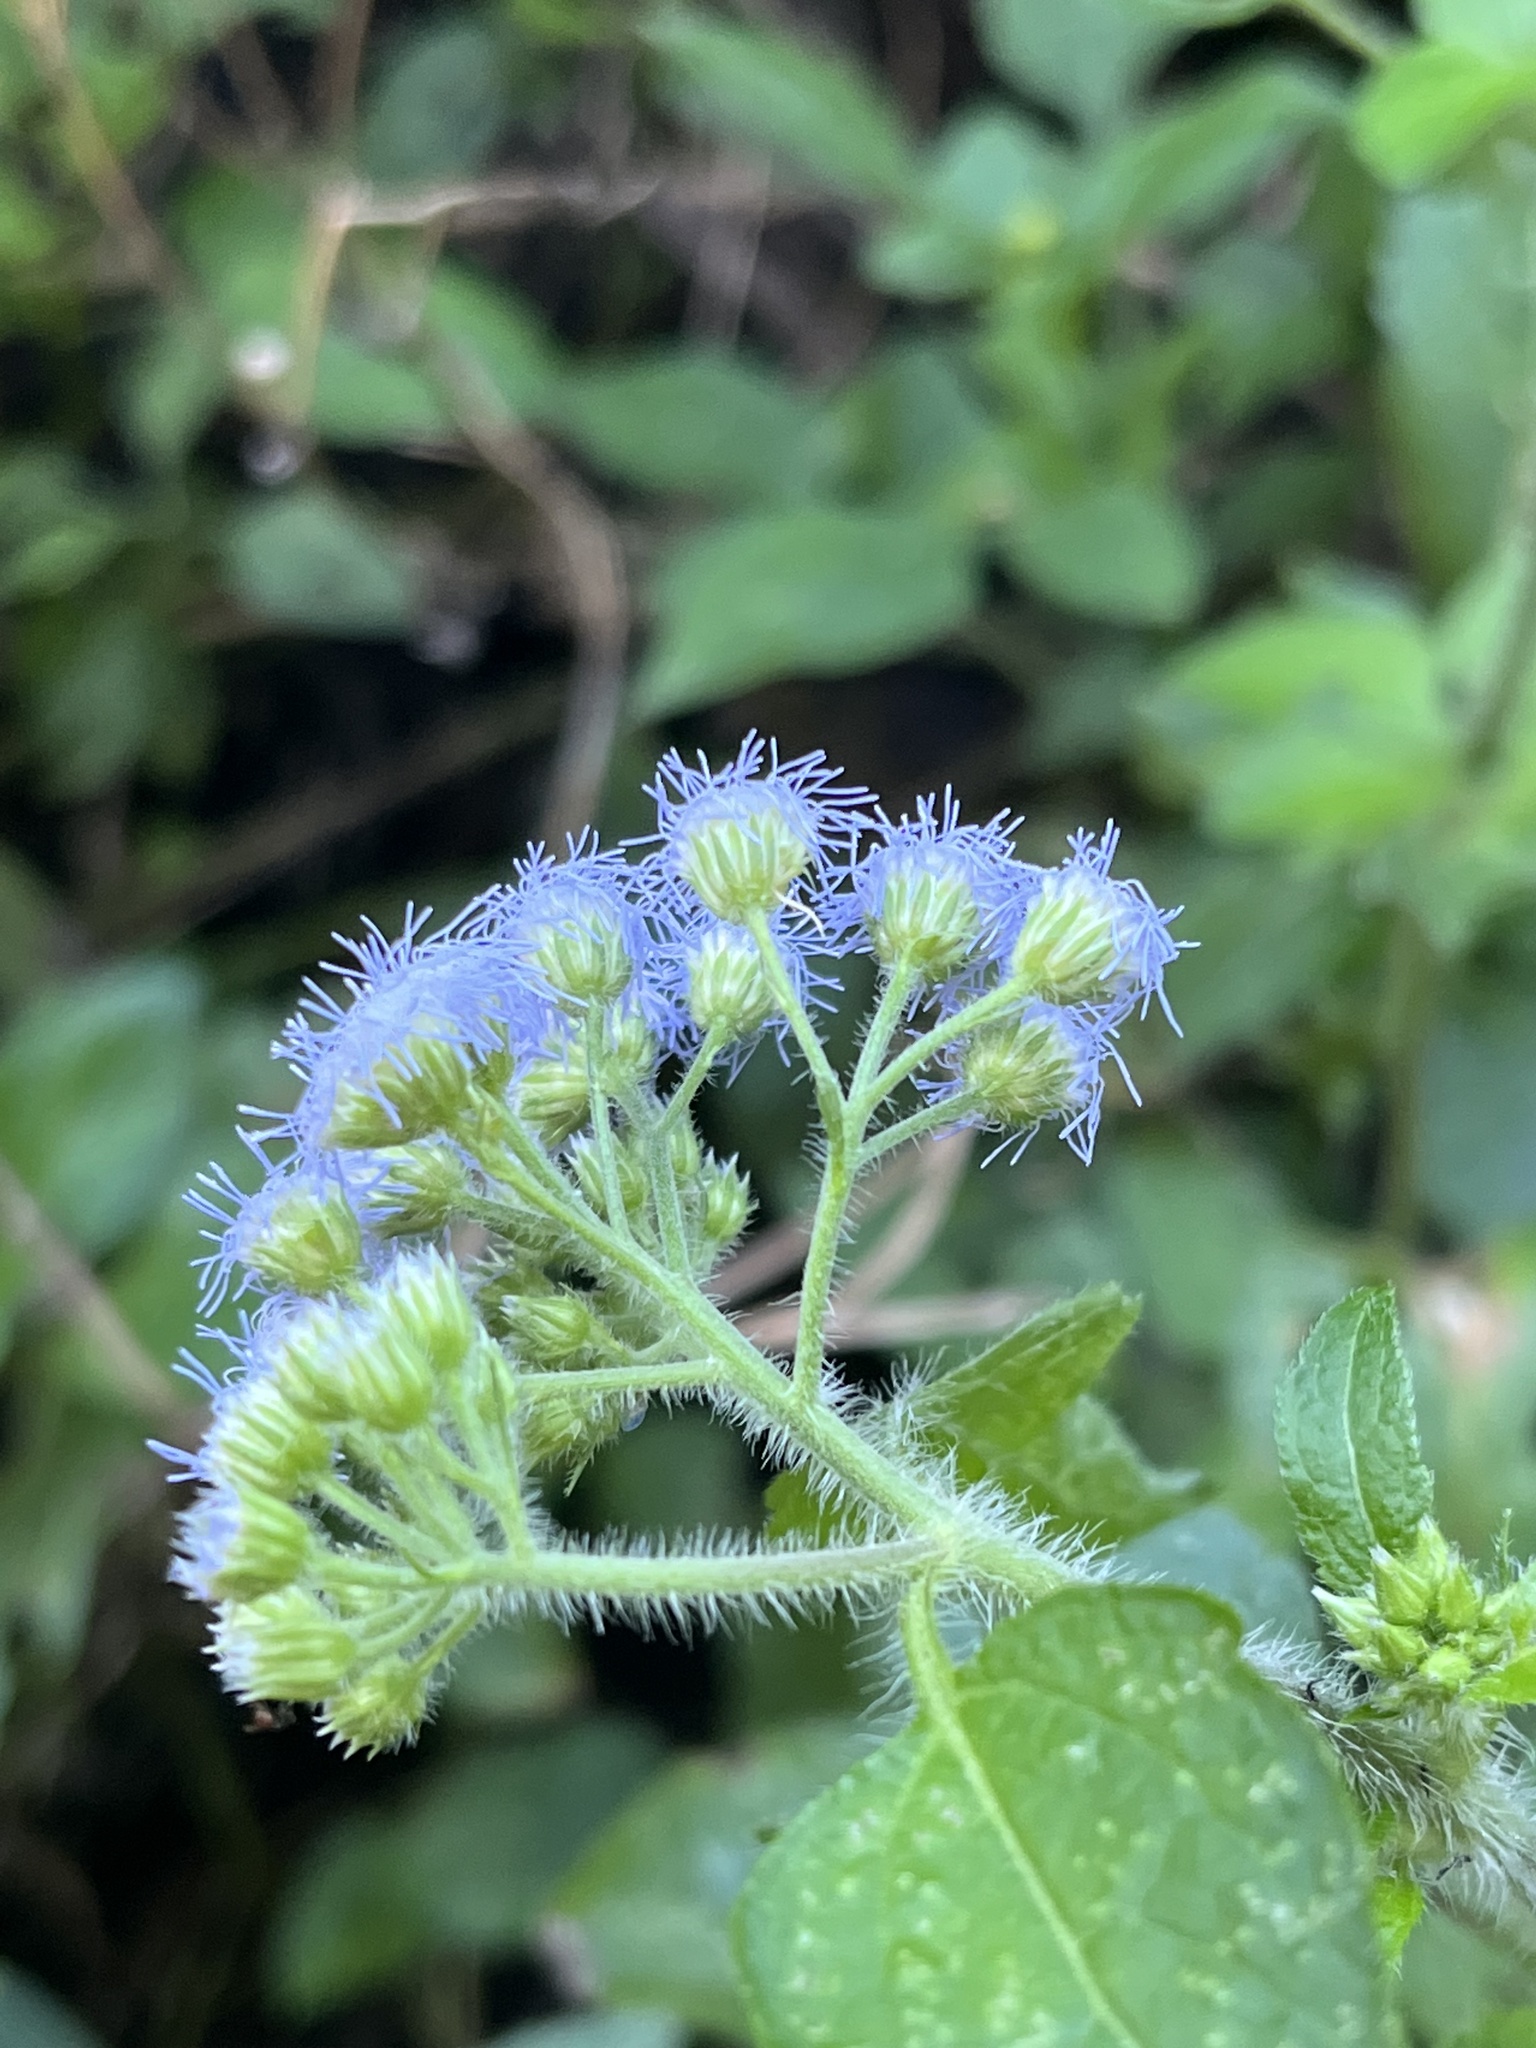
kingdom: Plantae
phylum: Tracheophyta
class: Magnoliopsida
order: Asterales
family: Asteraceae
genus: Ageratum
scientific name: Ageratum houstonianum
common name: Bluemink
